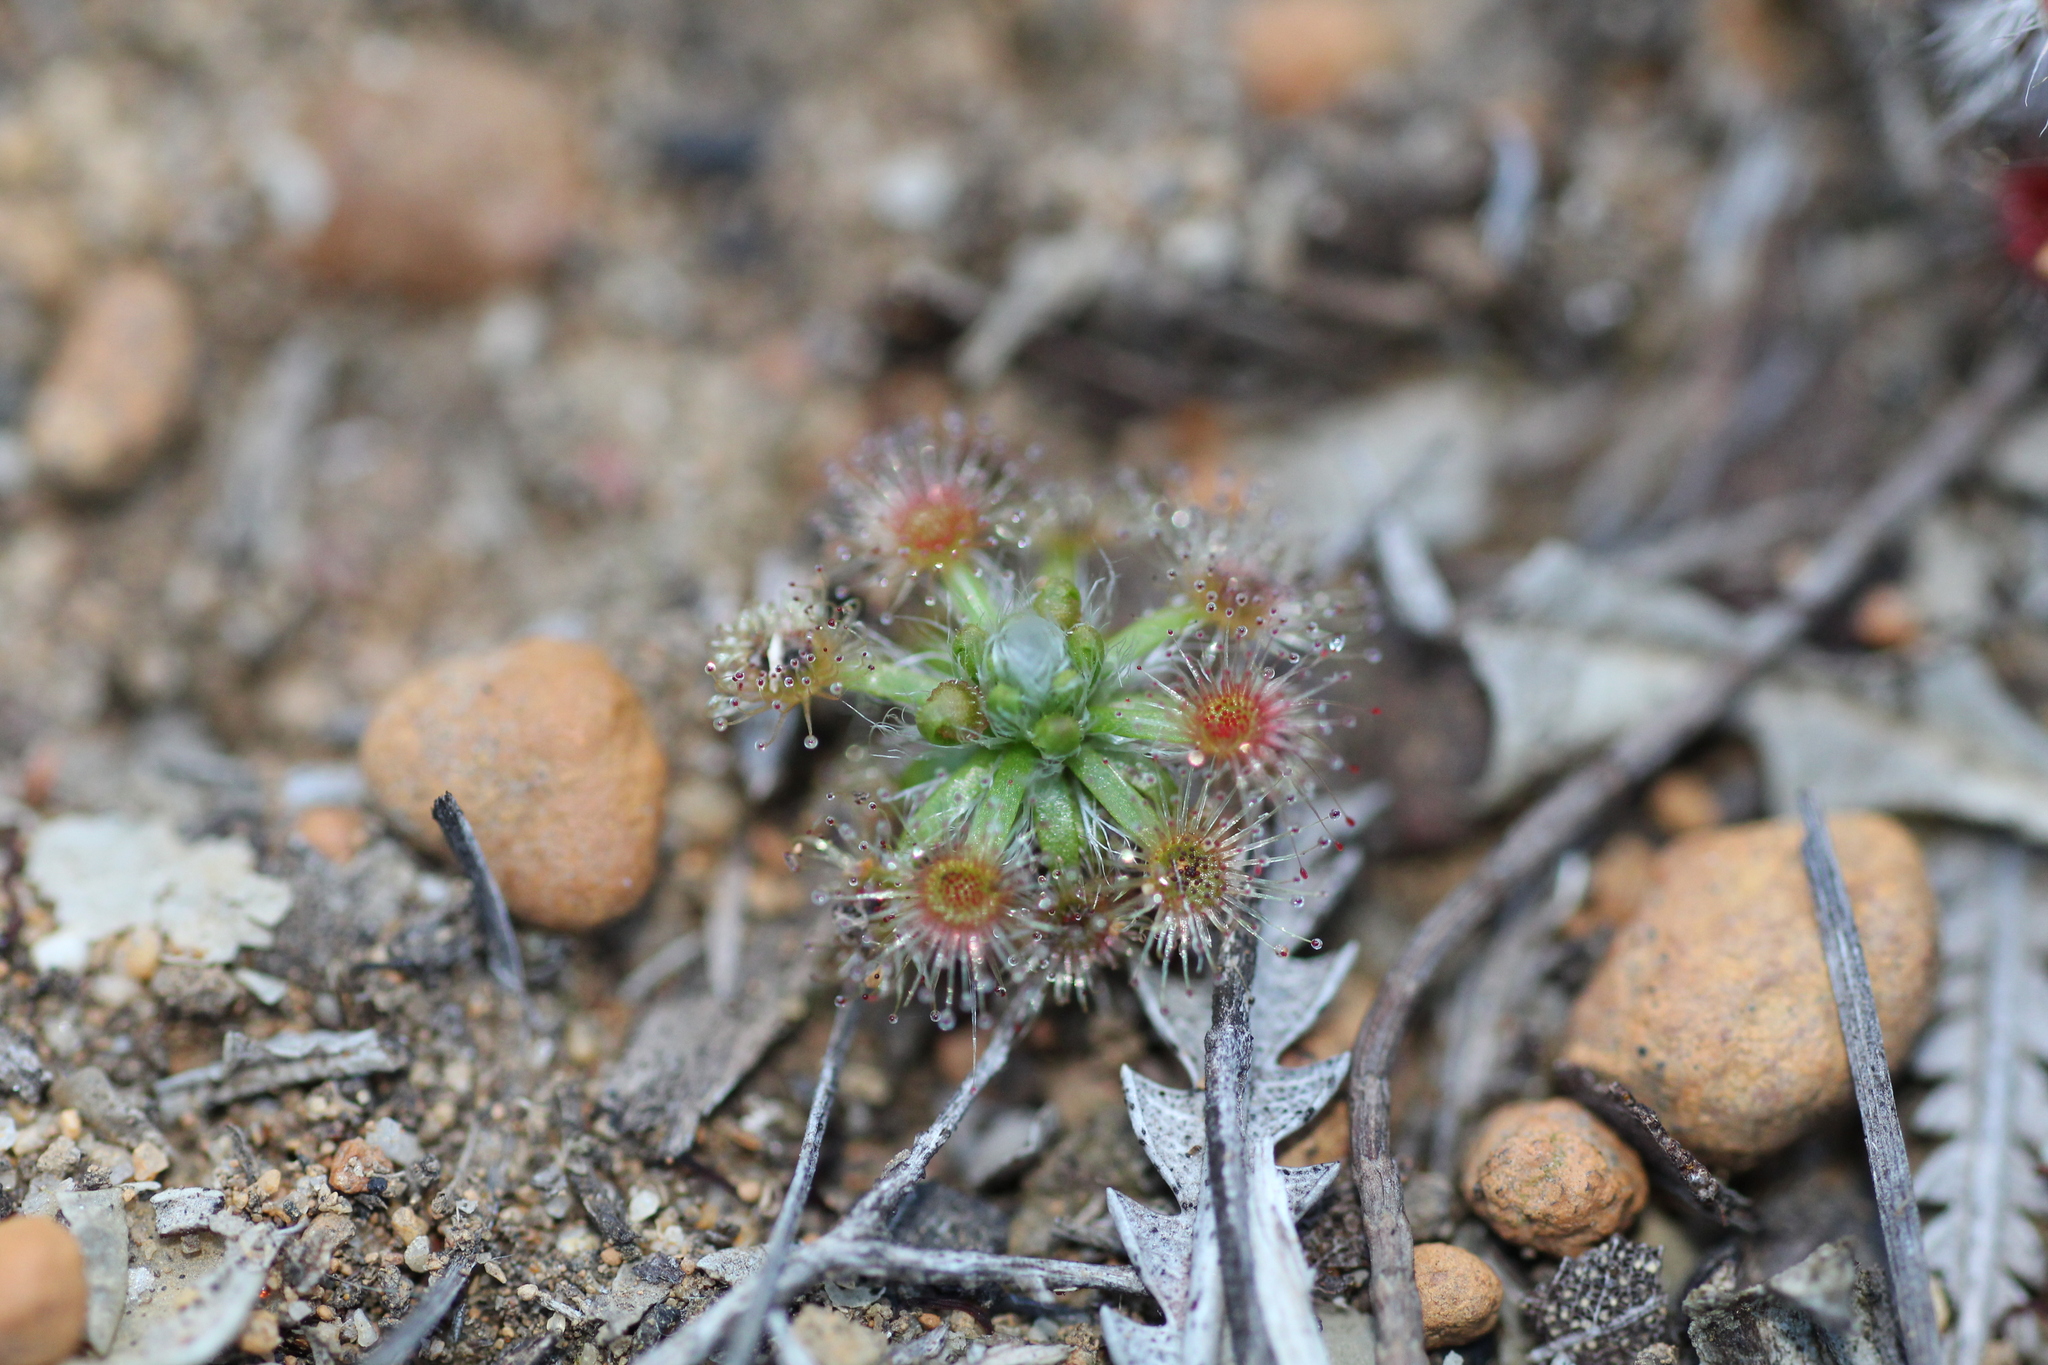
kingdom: Plantae
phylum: Tracheophyta
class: Magnoliopsida
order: Caryophyllales
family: Droseraceae
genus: Drosera
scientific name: Drosera hyperostigma
